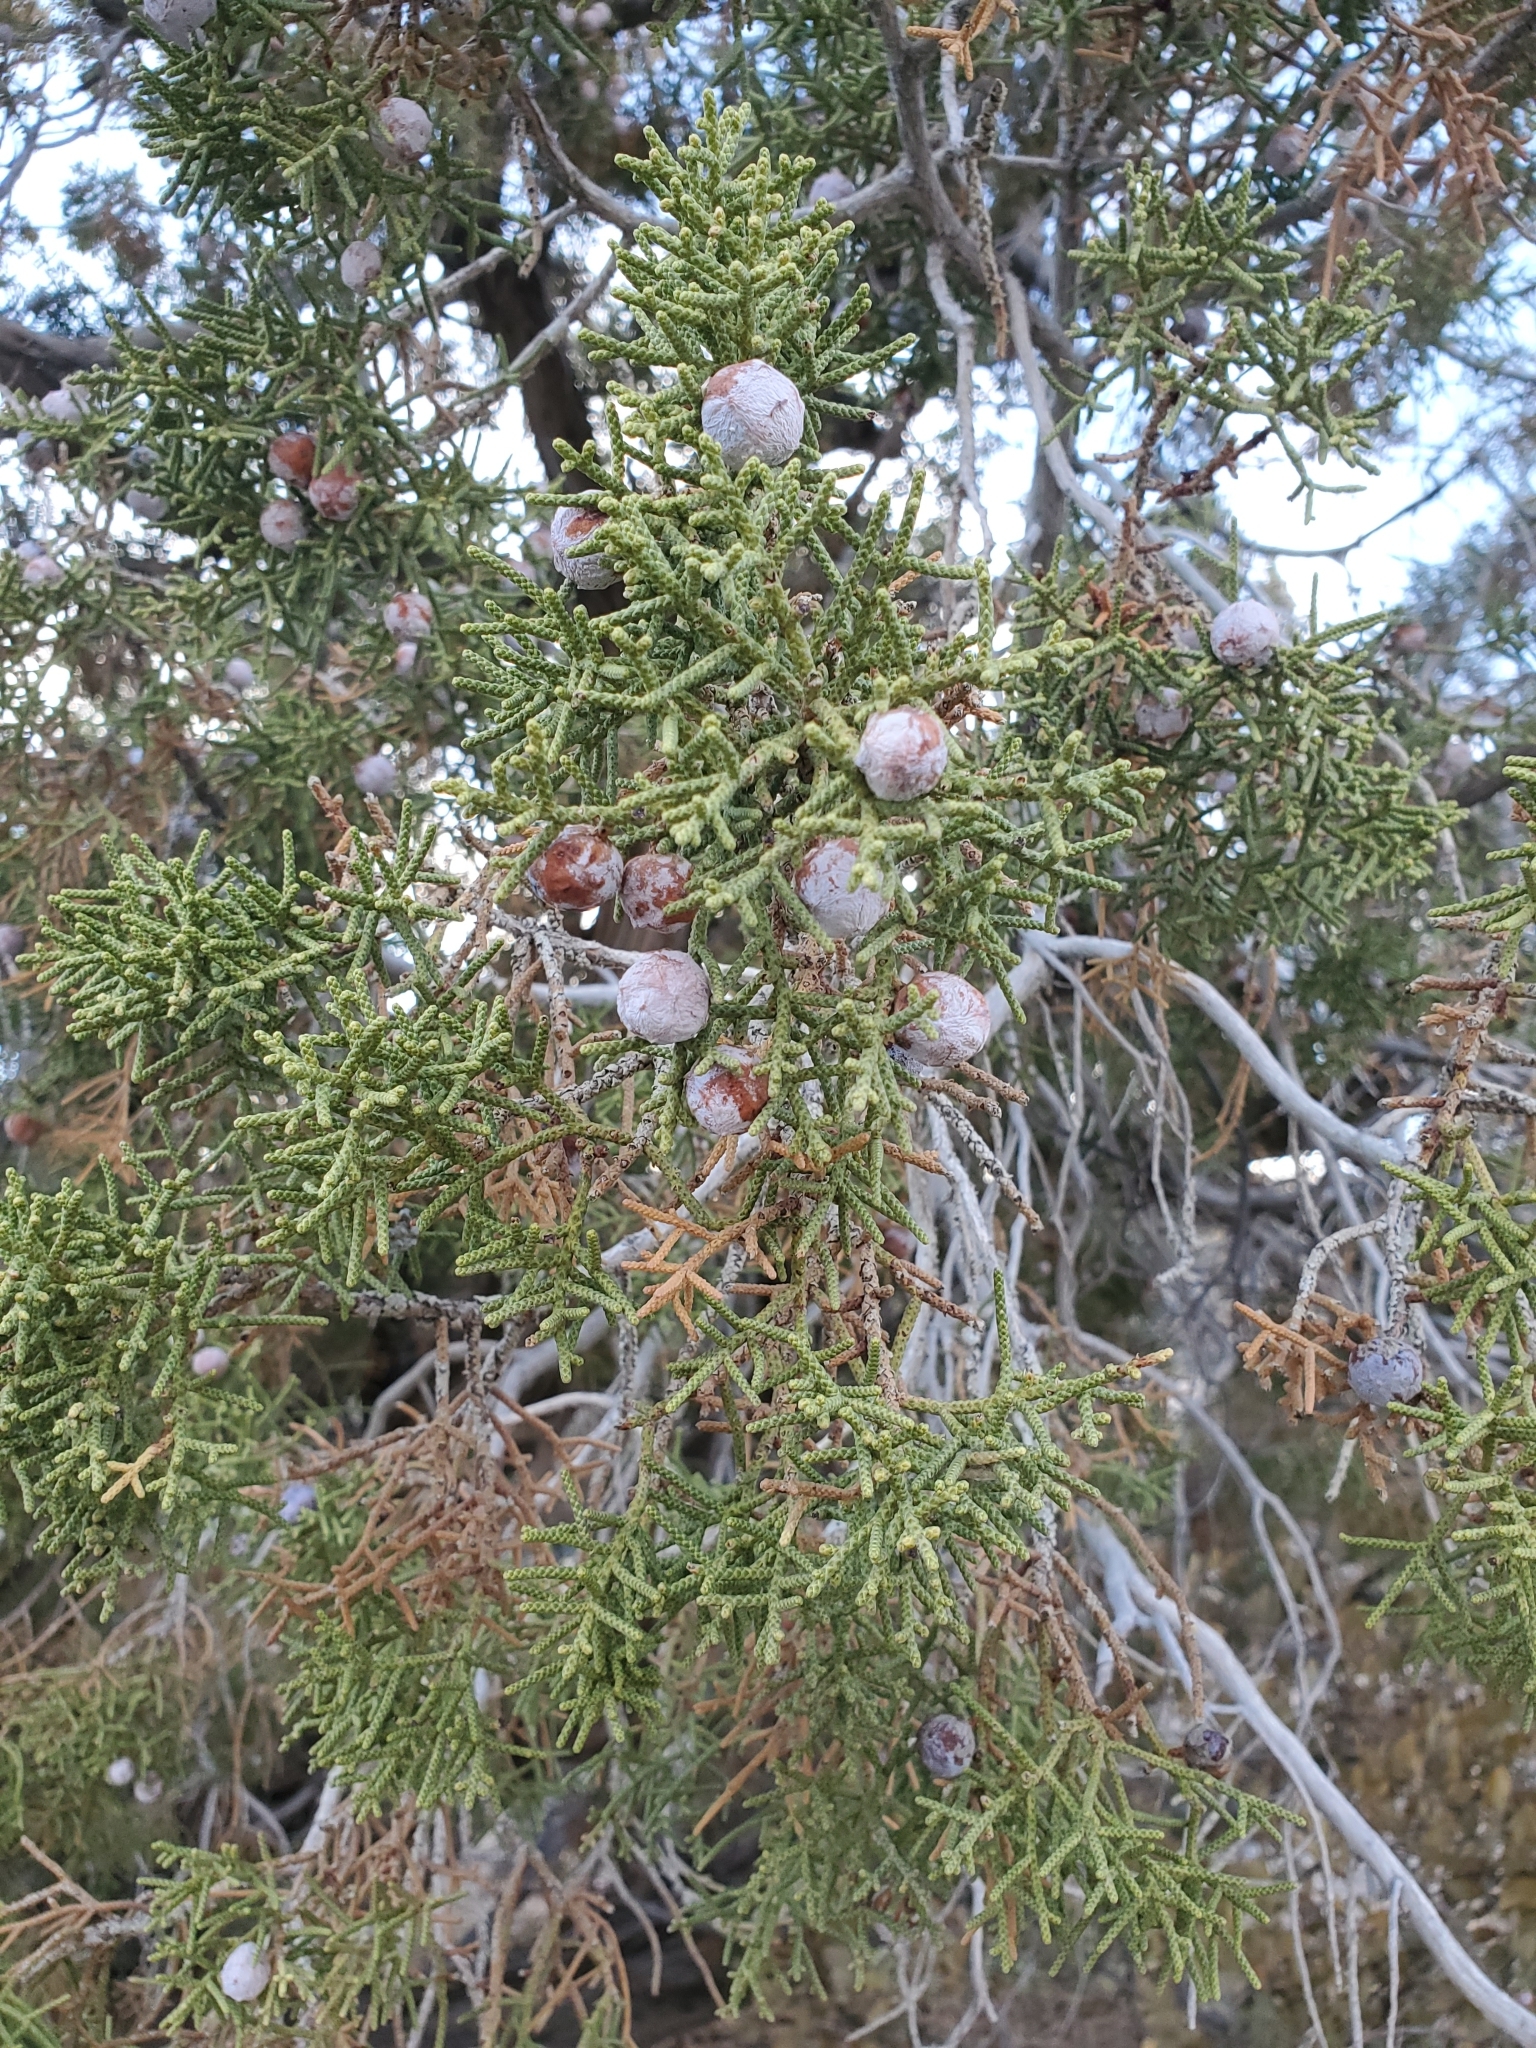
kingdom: Plantae
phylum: Tracheophyta
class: Pinopsida
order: Pinales
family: Cupressaceae
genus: Juniperus
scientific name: Juniperus californica
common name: California juniper
